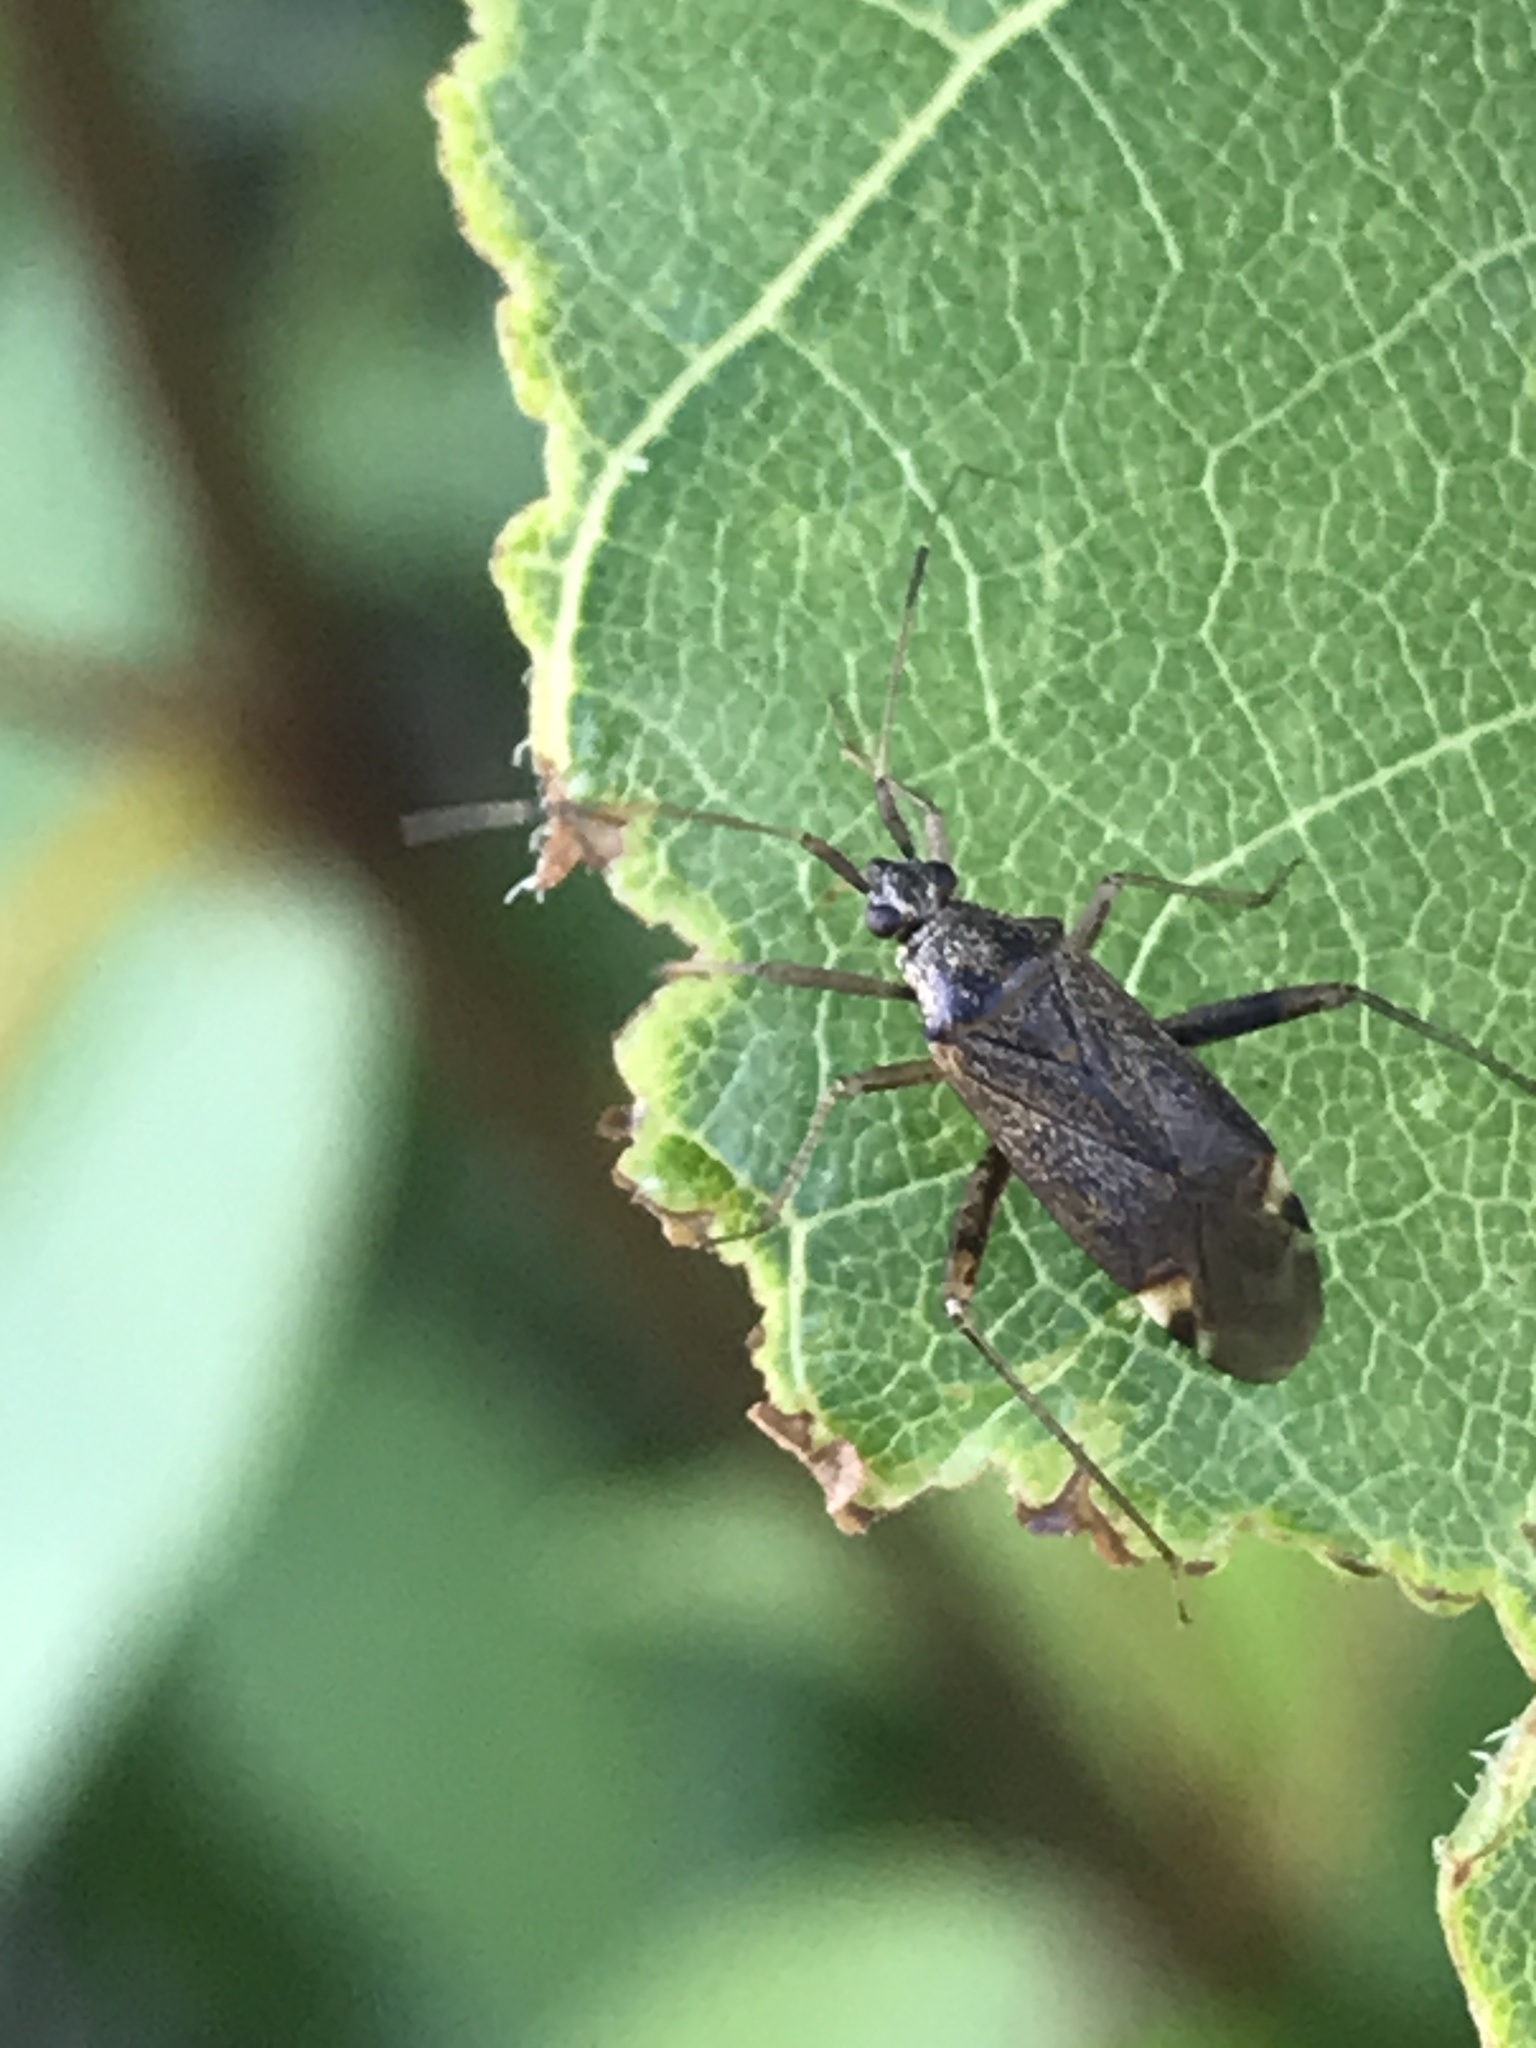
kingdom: Animalia
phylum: Arthropoda
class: Insecta
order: Hemiptera
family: Miridae
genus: Closterotomus
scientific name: Closterotomus fulvomaculatus
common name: Spotted plant bug
